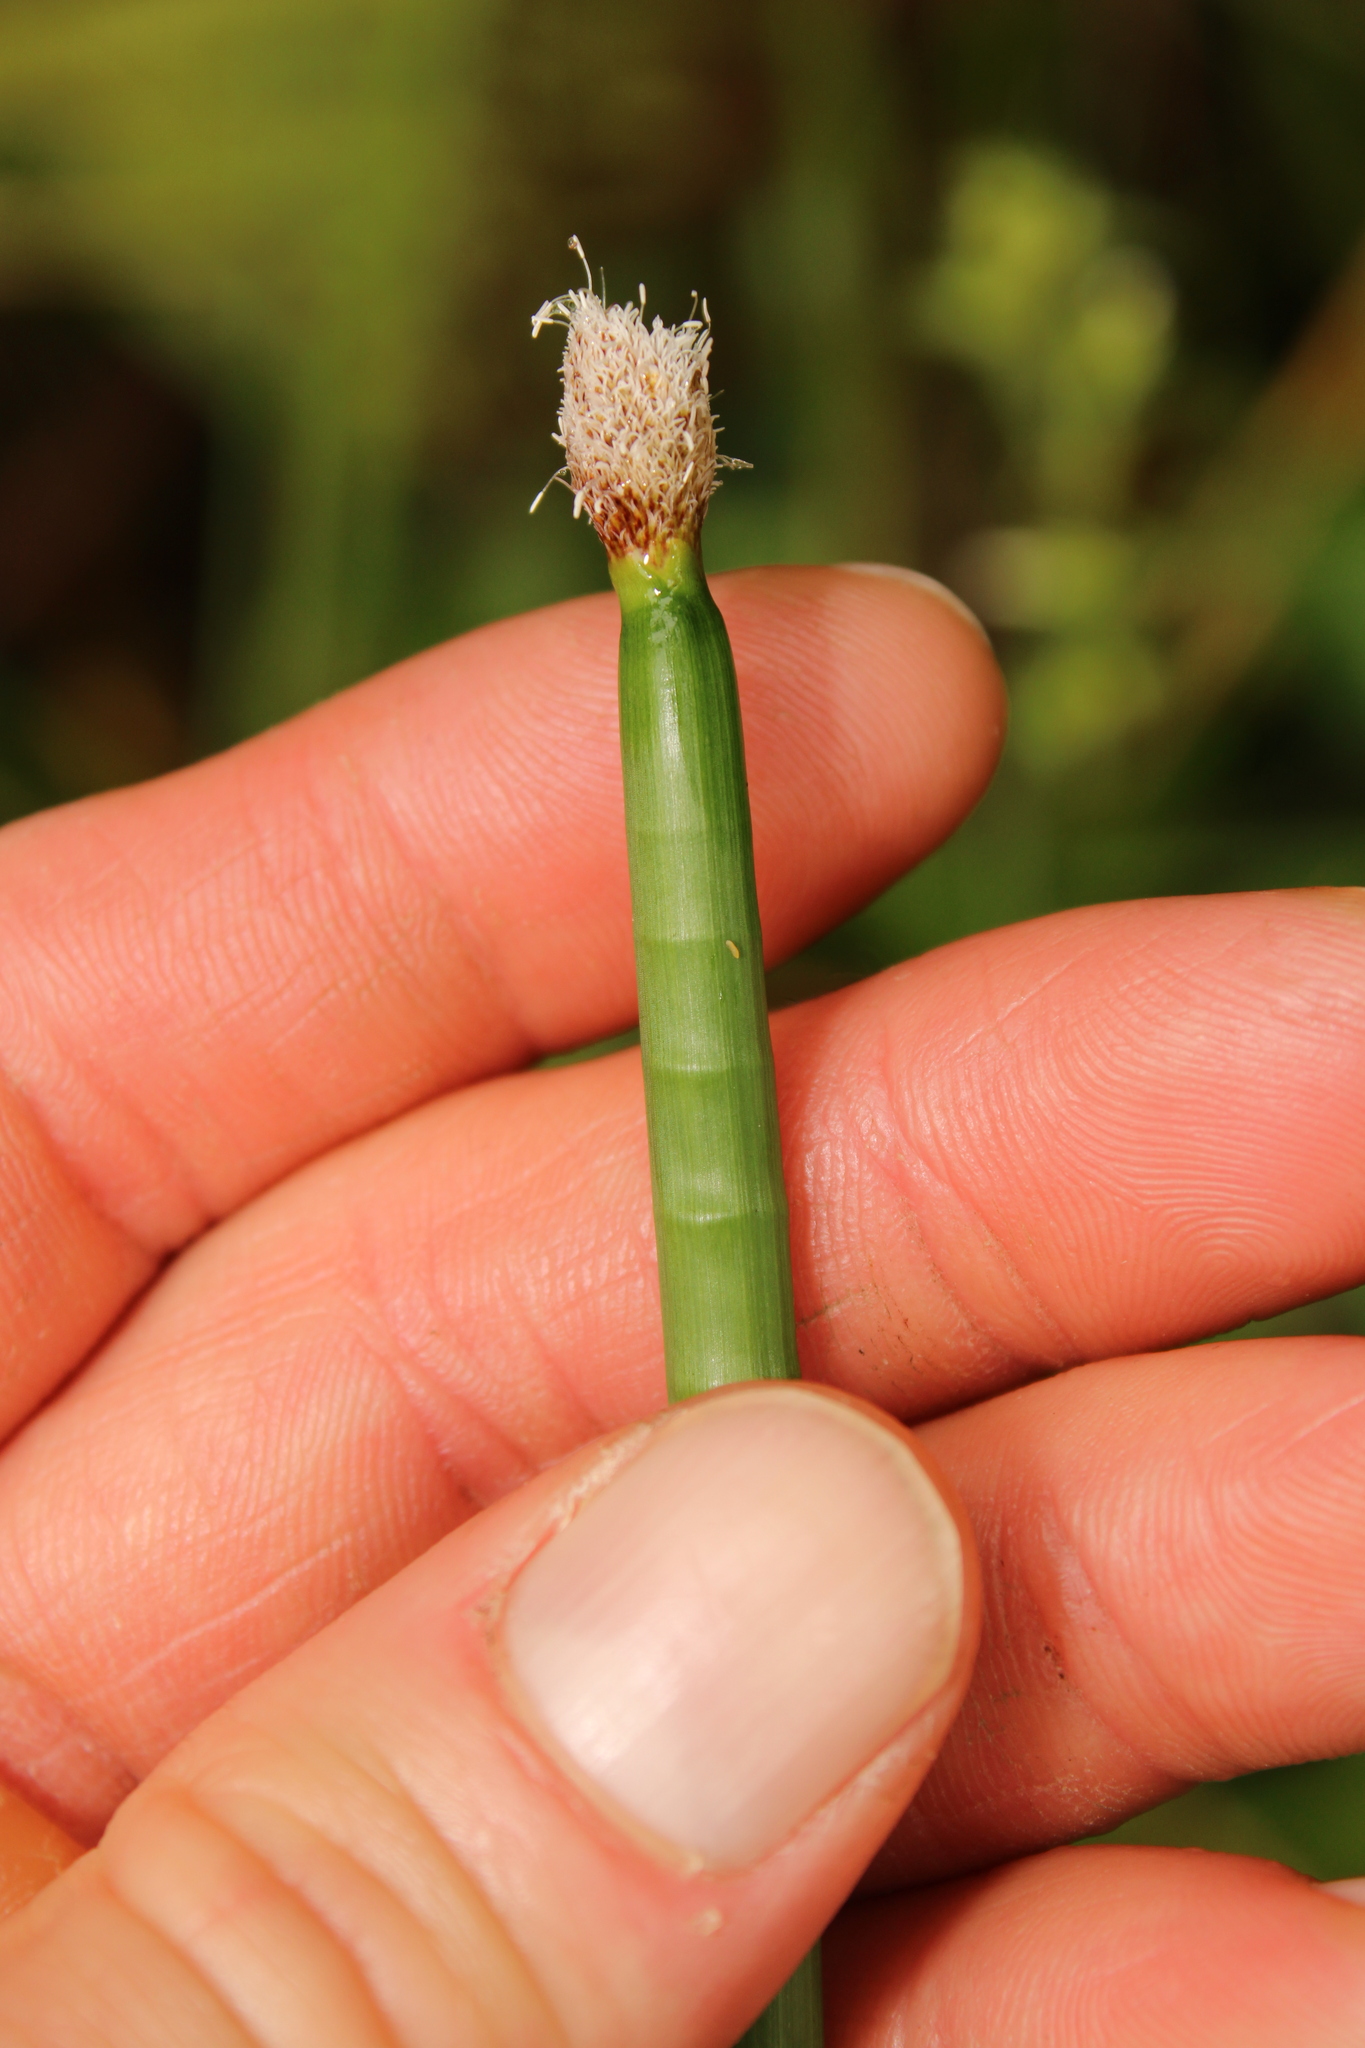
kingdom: Plantae
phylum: Tracheophyta
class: Liliopsida
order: Poales
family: Cyperaceae
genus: Eleocharis
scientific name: Eleocharis elegans
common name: Elegant spike-rush
